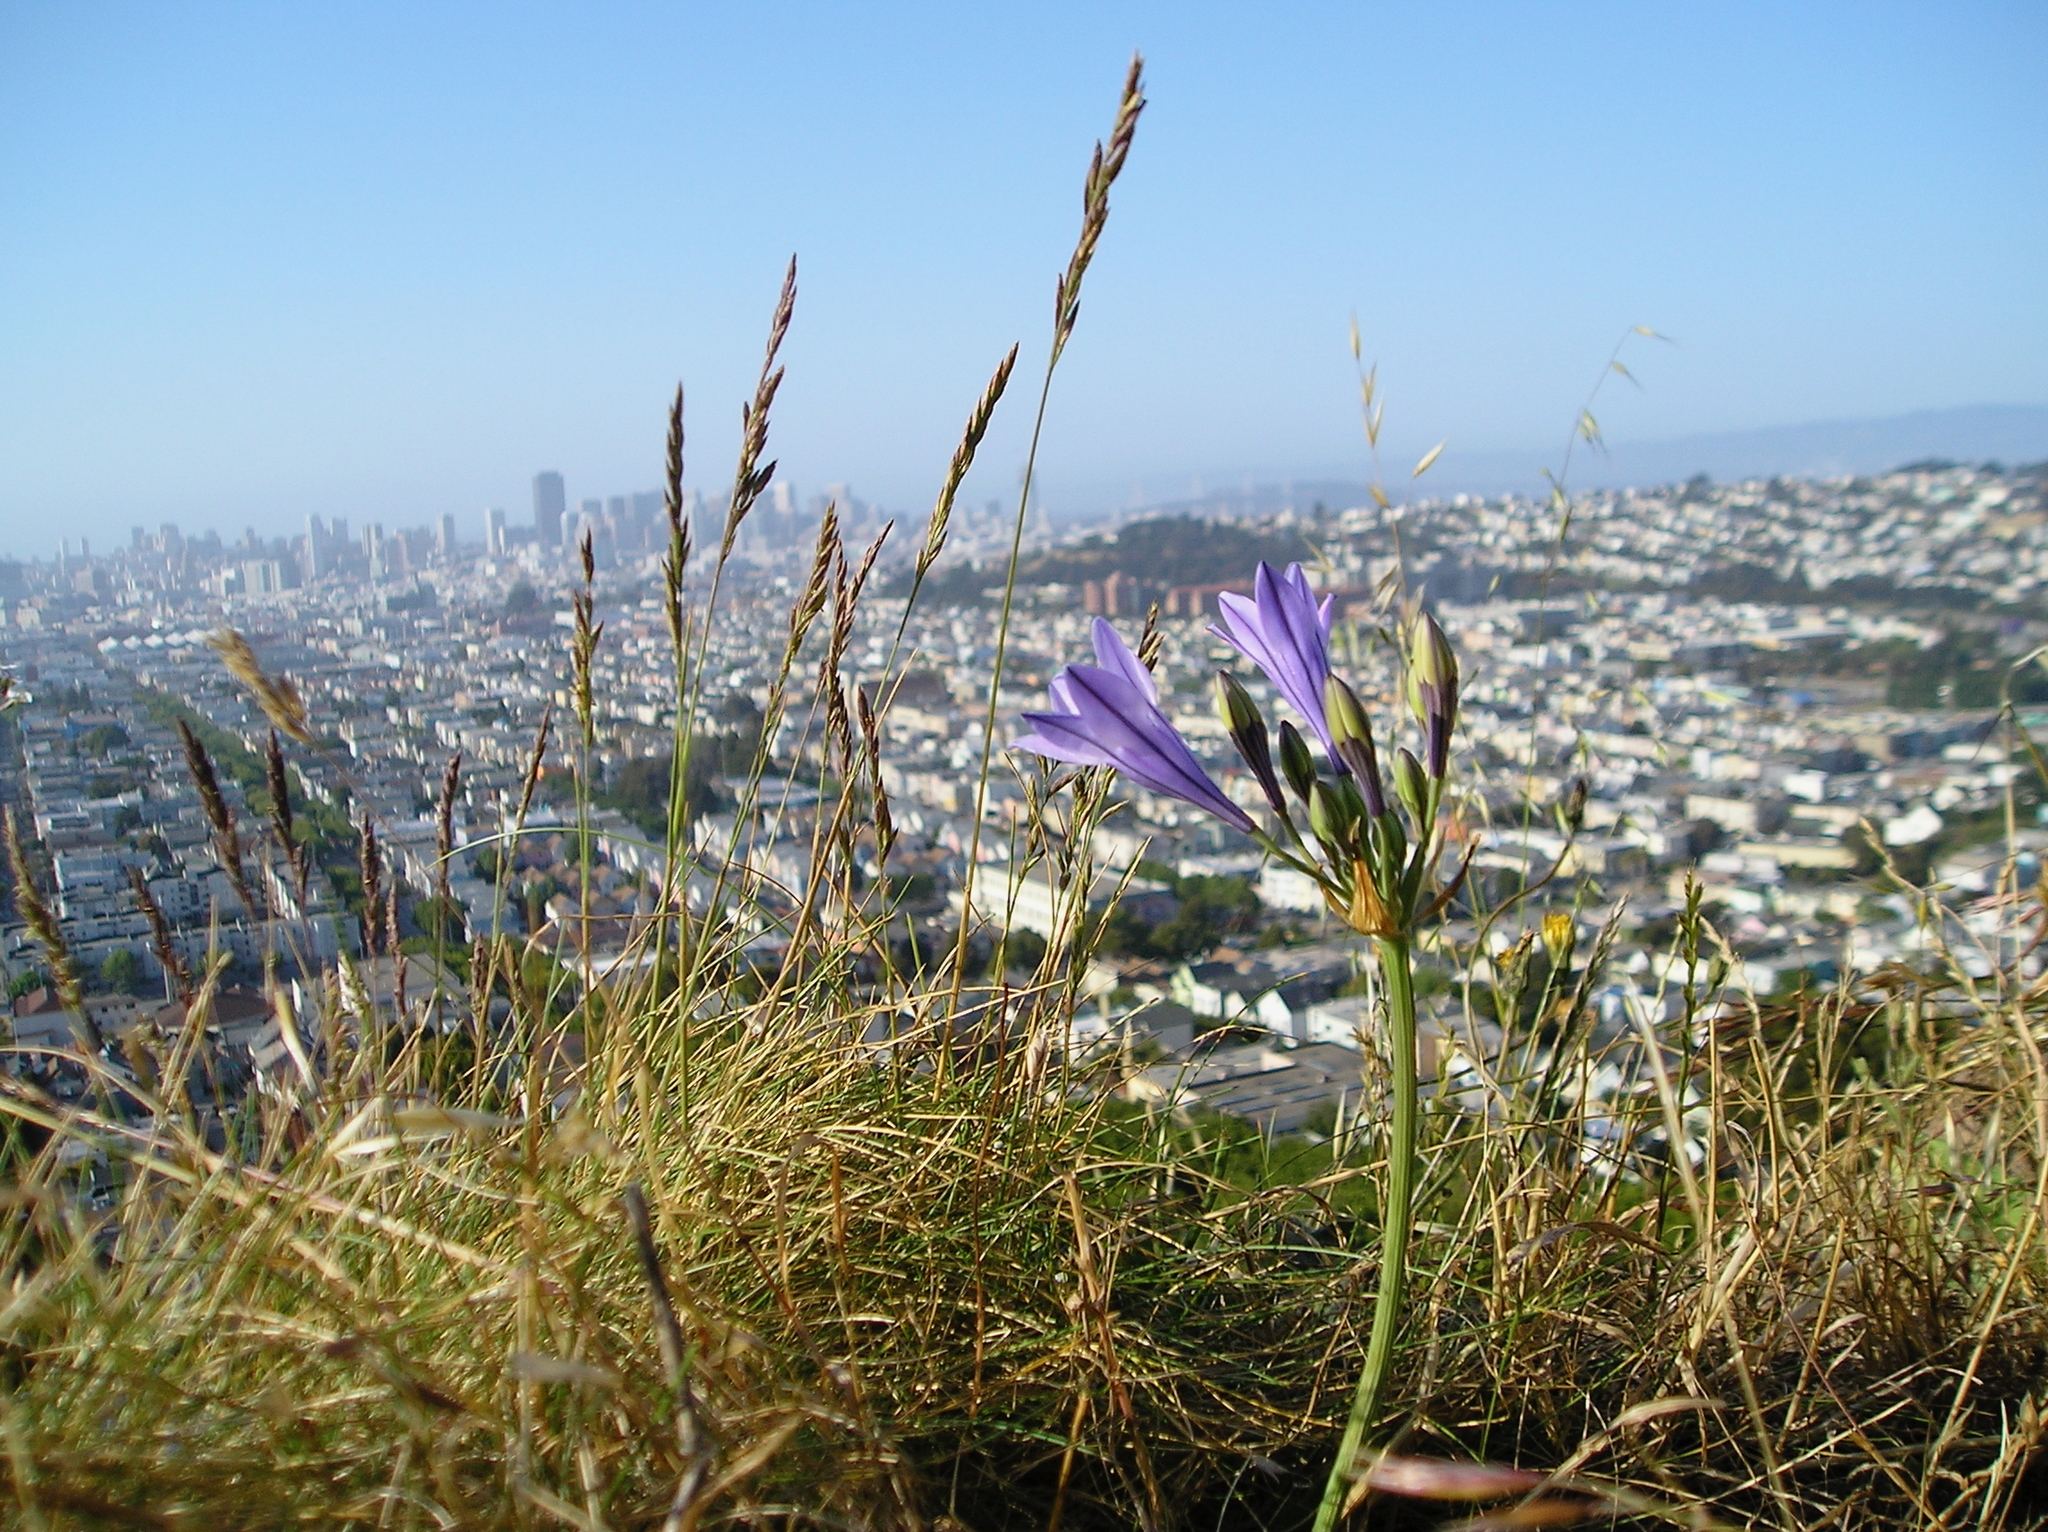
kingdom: Plantae
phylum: Tracheophyta
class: Liliopsida
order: Asparagales
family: Asparagaceae
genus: Triteleia
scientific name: Triteleia laxa
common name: Triplet-lily
